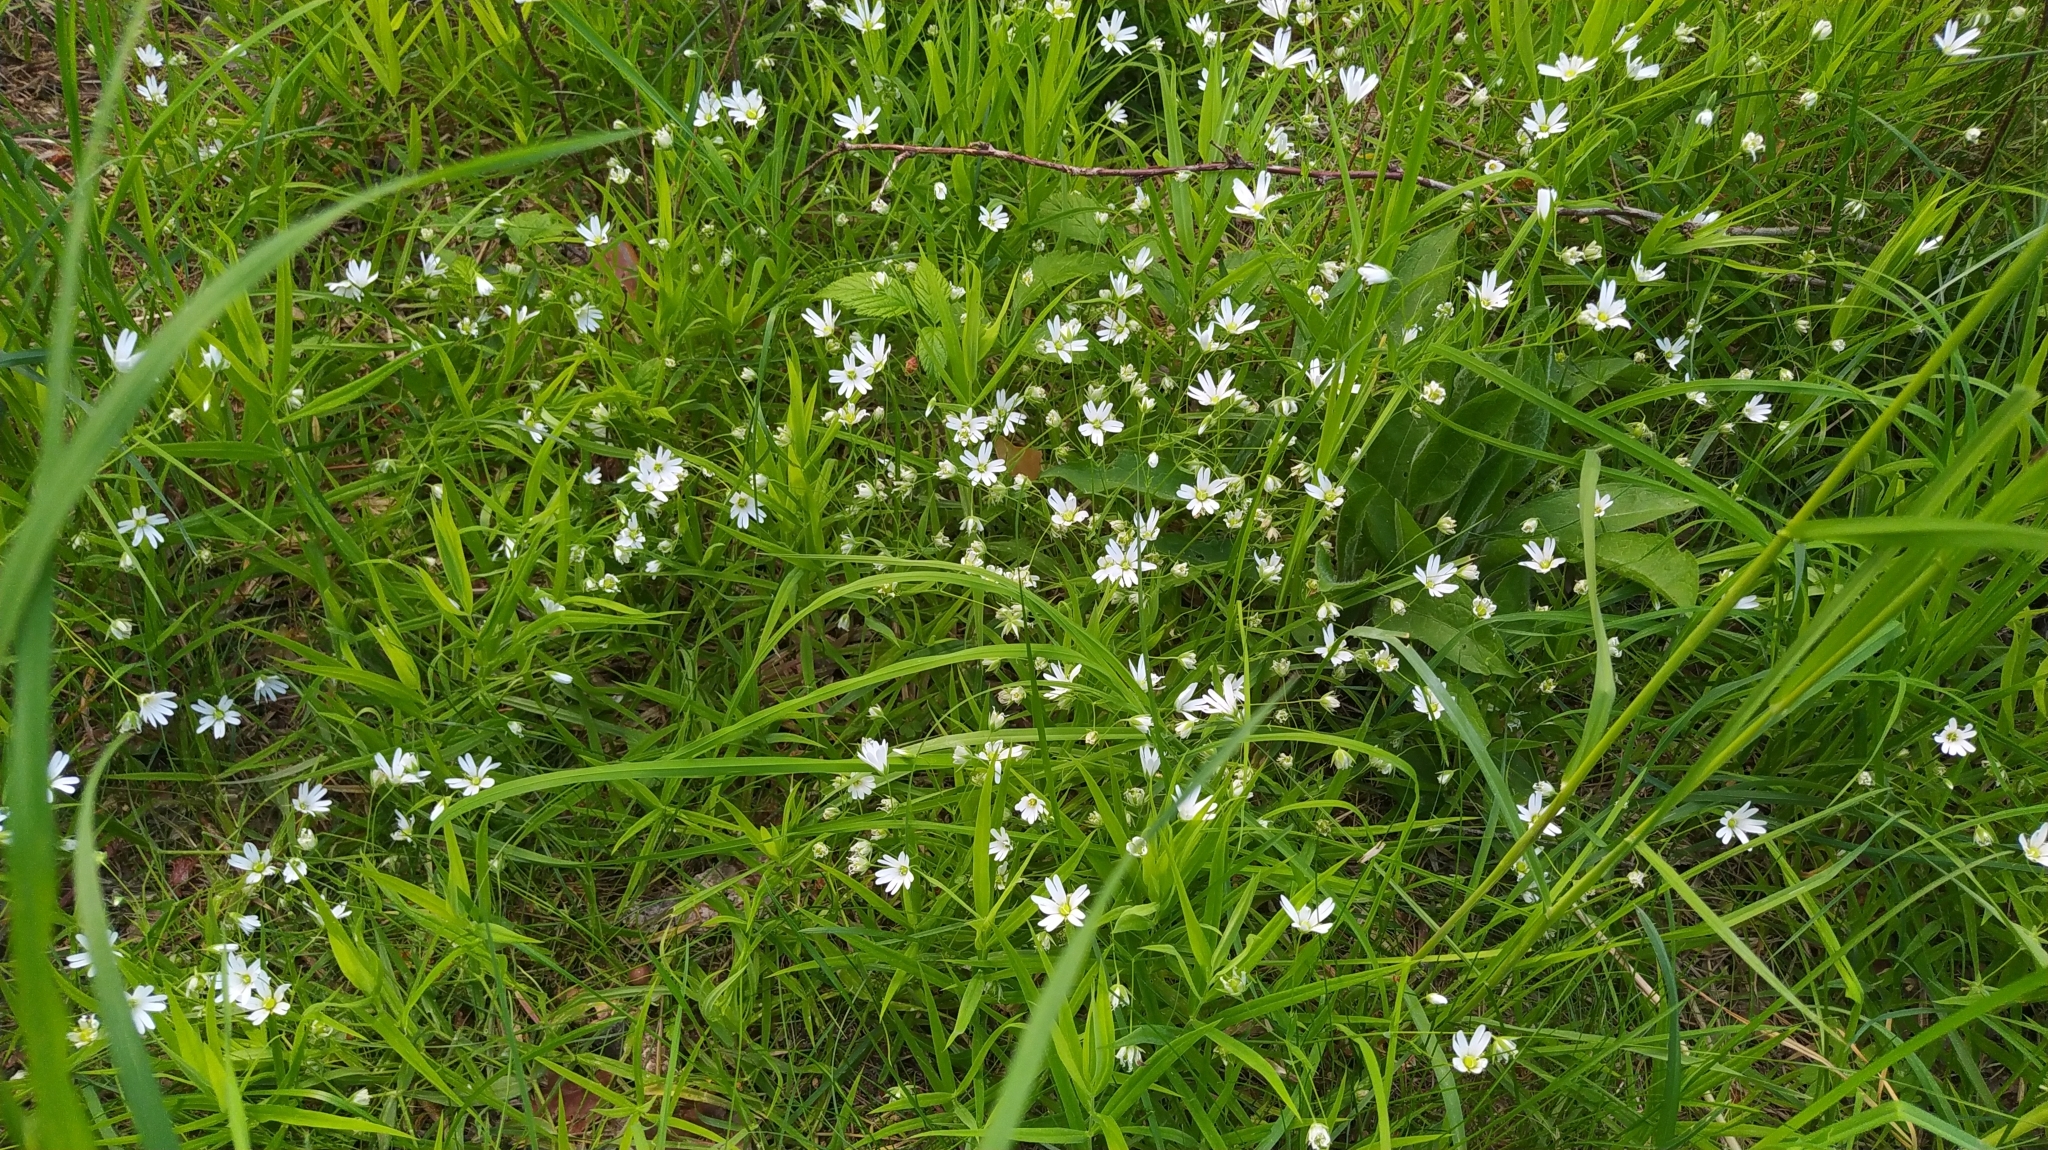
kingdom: Plantae
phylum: Tracheophyta
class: Magnoliopsida
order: Caryophyllales
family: Caryophyllaceae
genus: Rabelera
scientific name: Rabelera holostea
